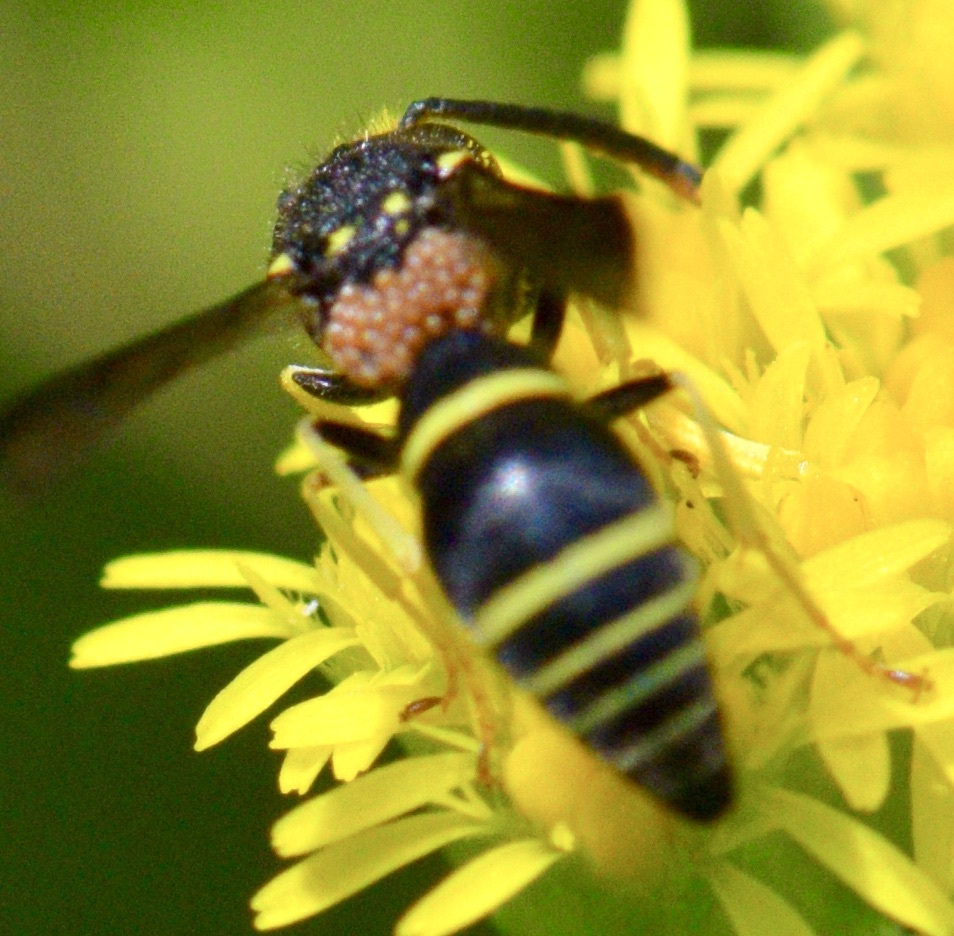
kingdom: Animalia
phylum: Arthropoda
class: Insecta
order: Hymenoptera
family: Vespidae
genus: Ancistrocerus
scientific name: Ancistrocerus
